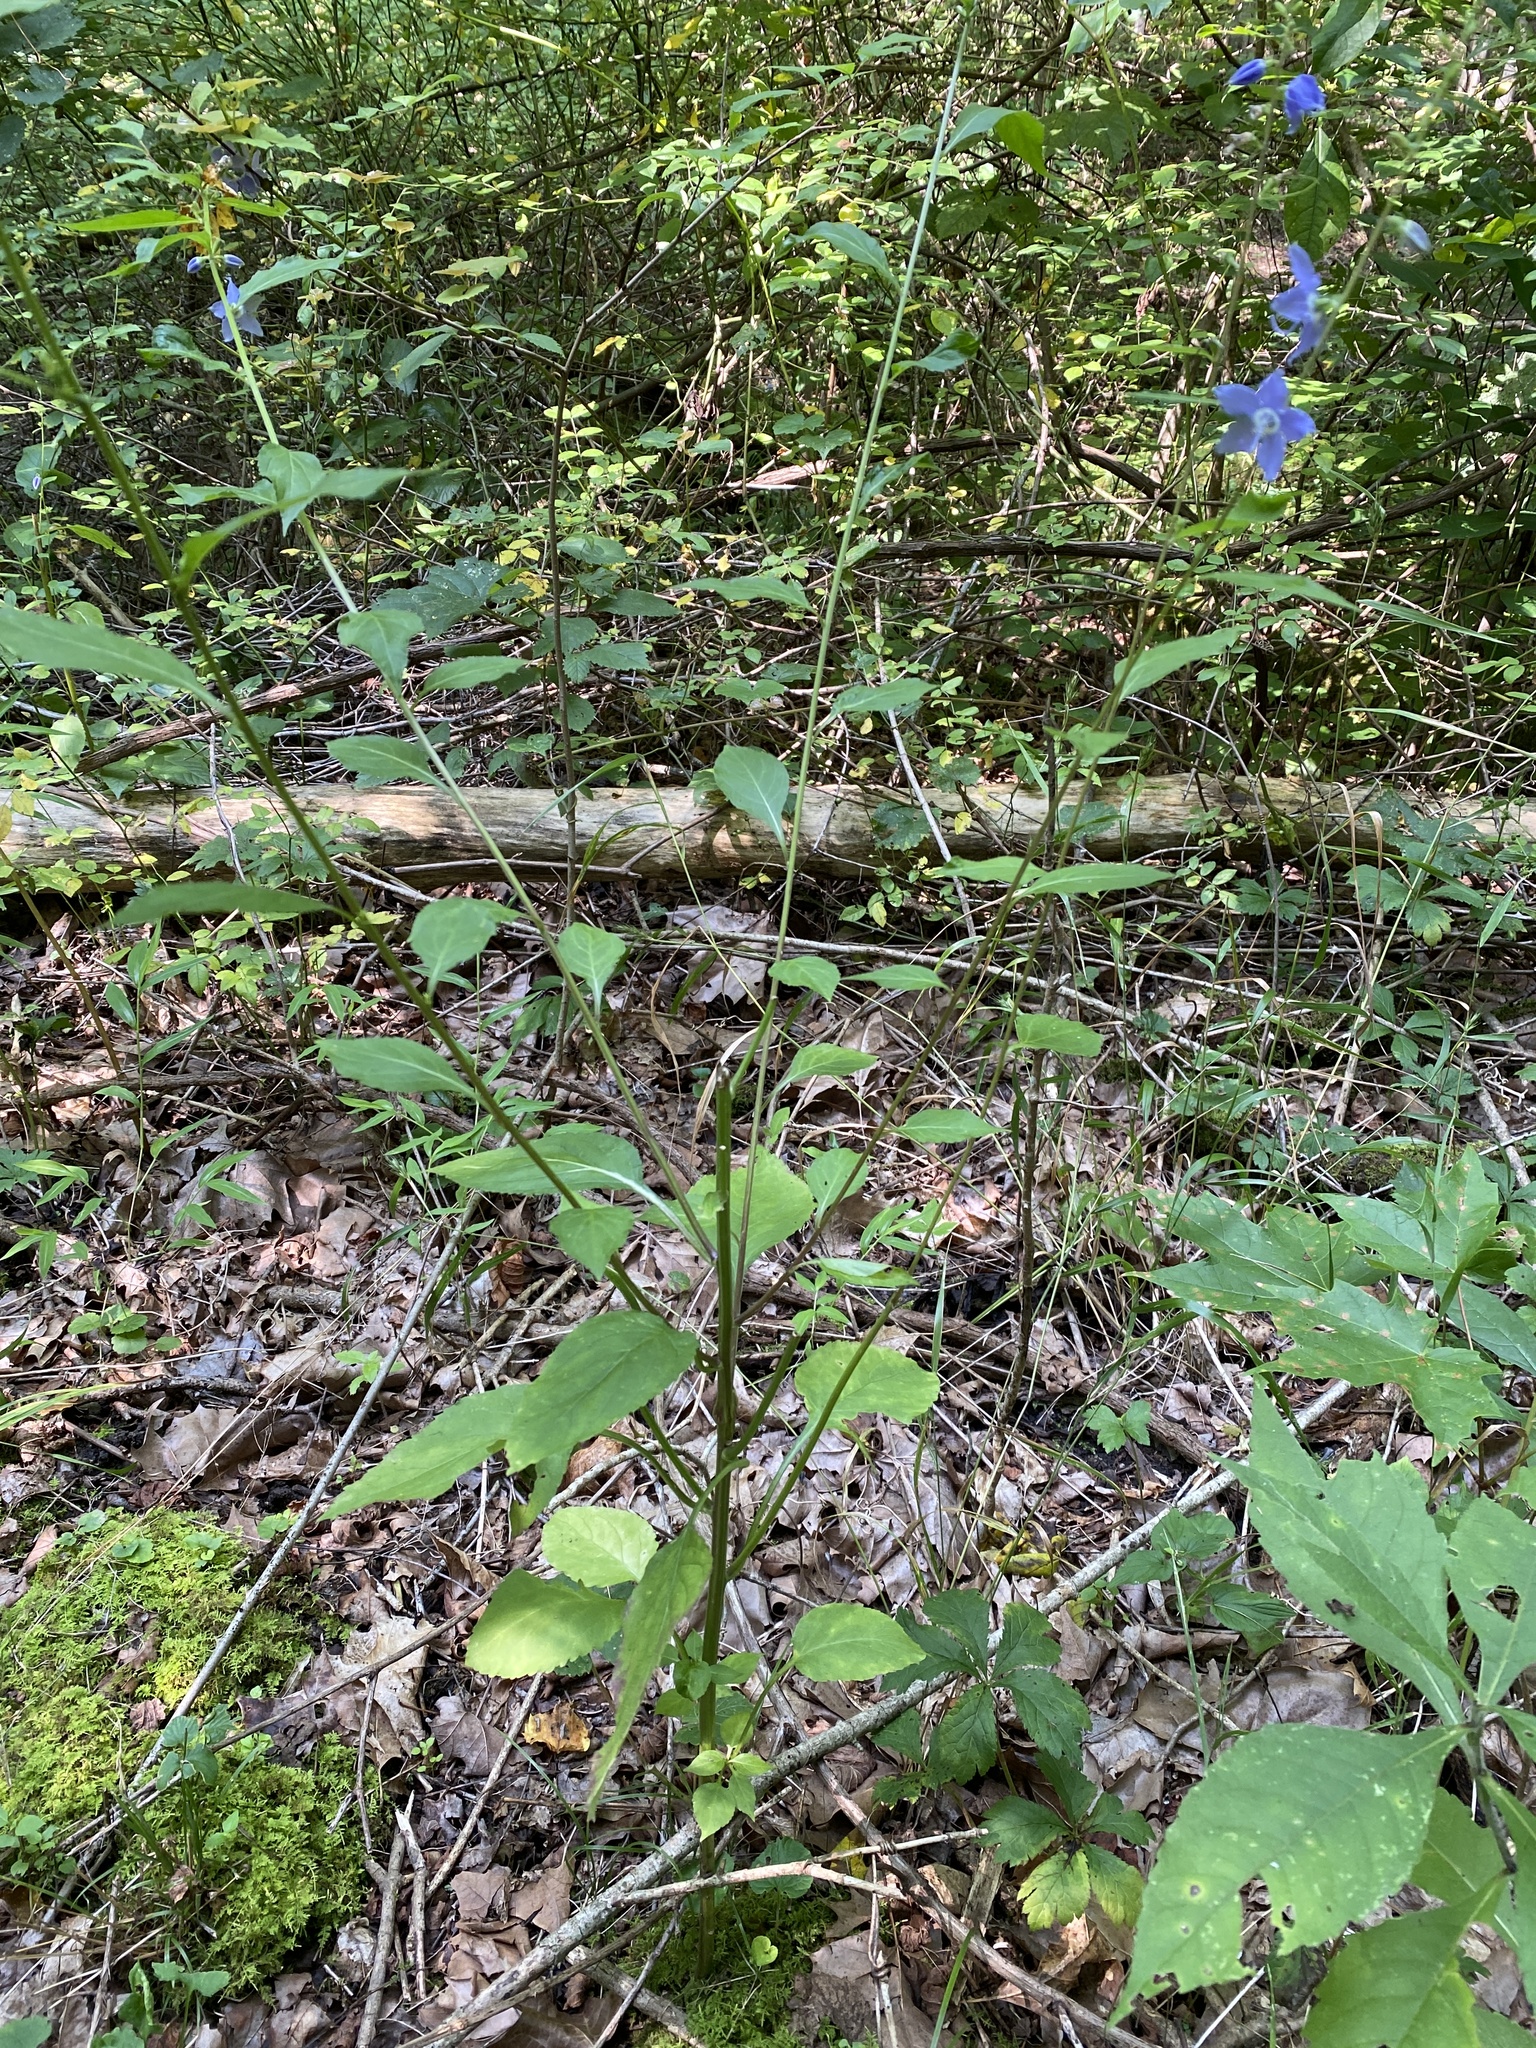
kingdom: Plantae
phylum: Tracheophyta
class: Magnoliopsida
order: Asterales
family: Campanulaceae
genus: Campanulastrum
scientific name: Campanulastrum americanum
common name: American bellflower
